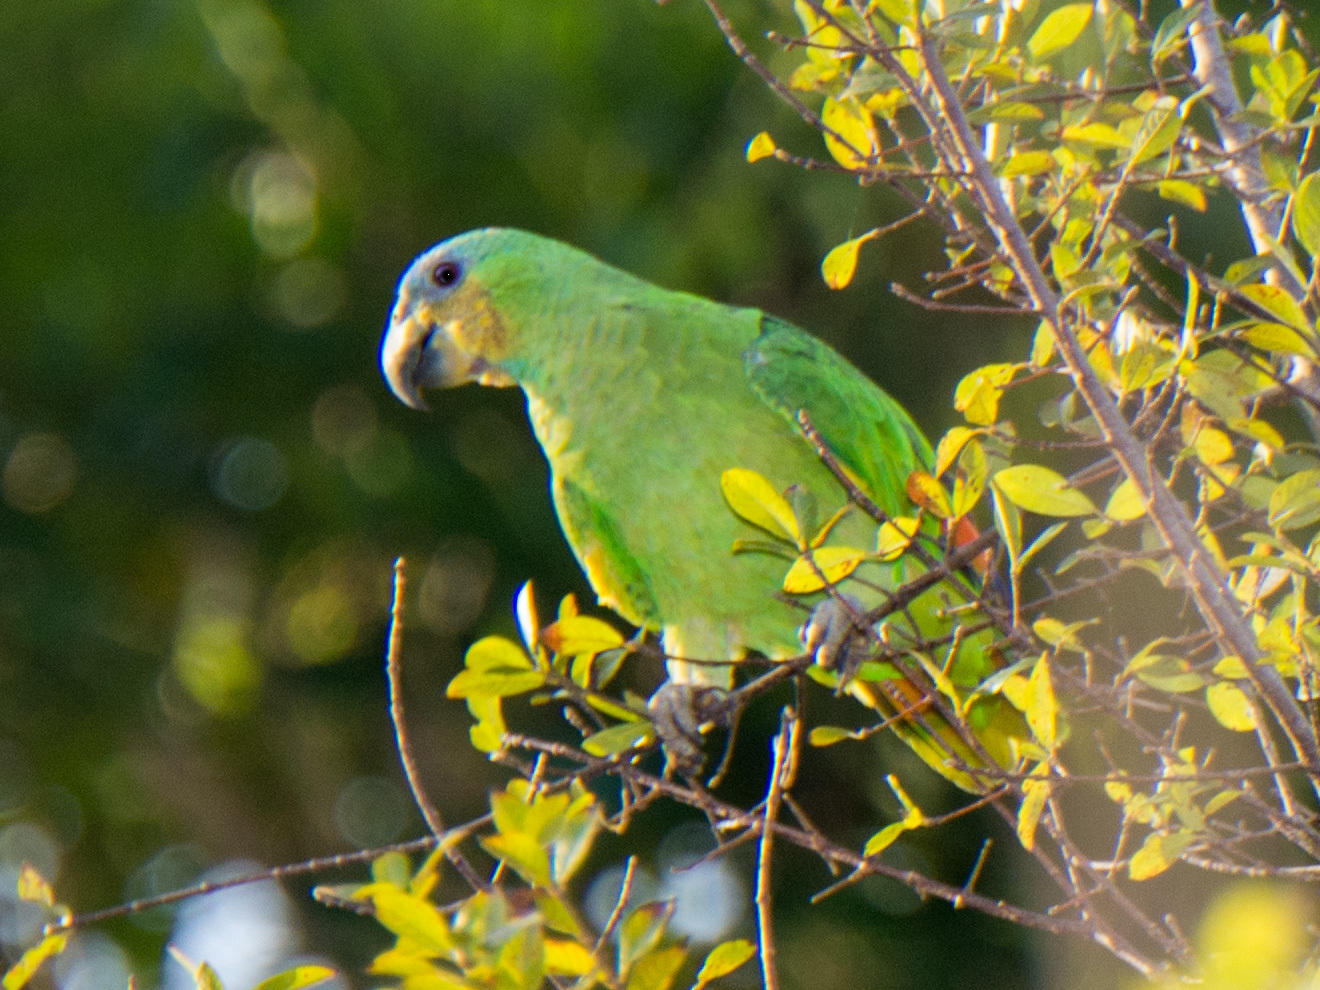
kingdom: Animalia
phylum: Chordata
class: Aves
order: Psittaciformes
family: Psittacidae
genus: Amazona
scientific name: Amazona amazonica
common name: Orange-winged amazon
